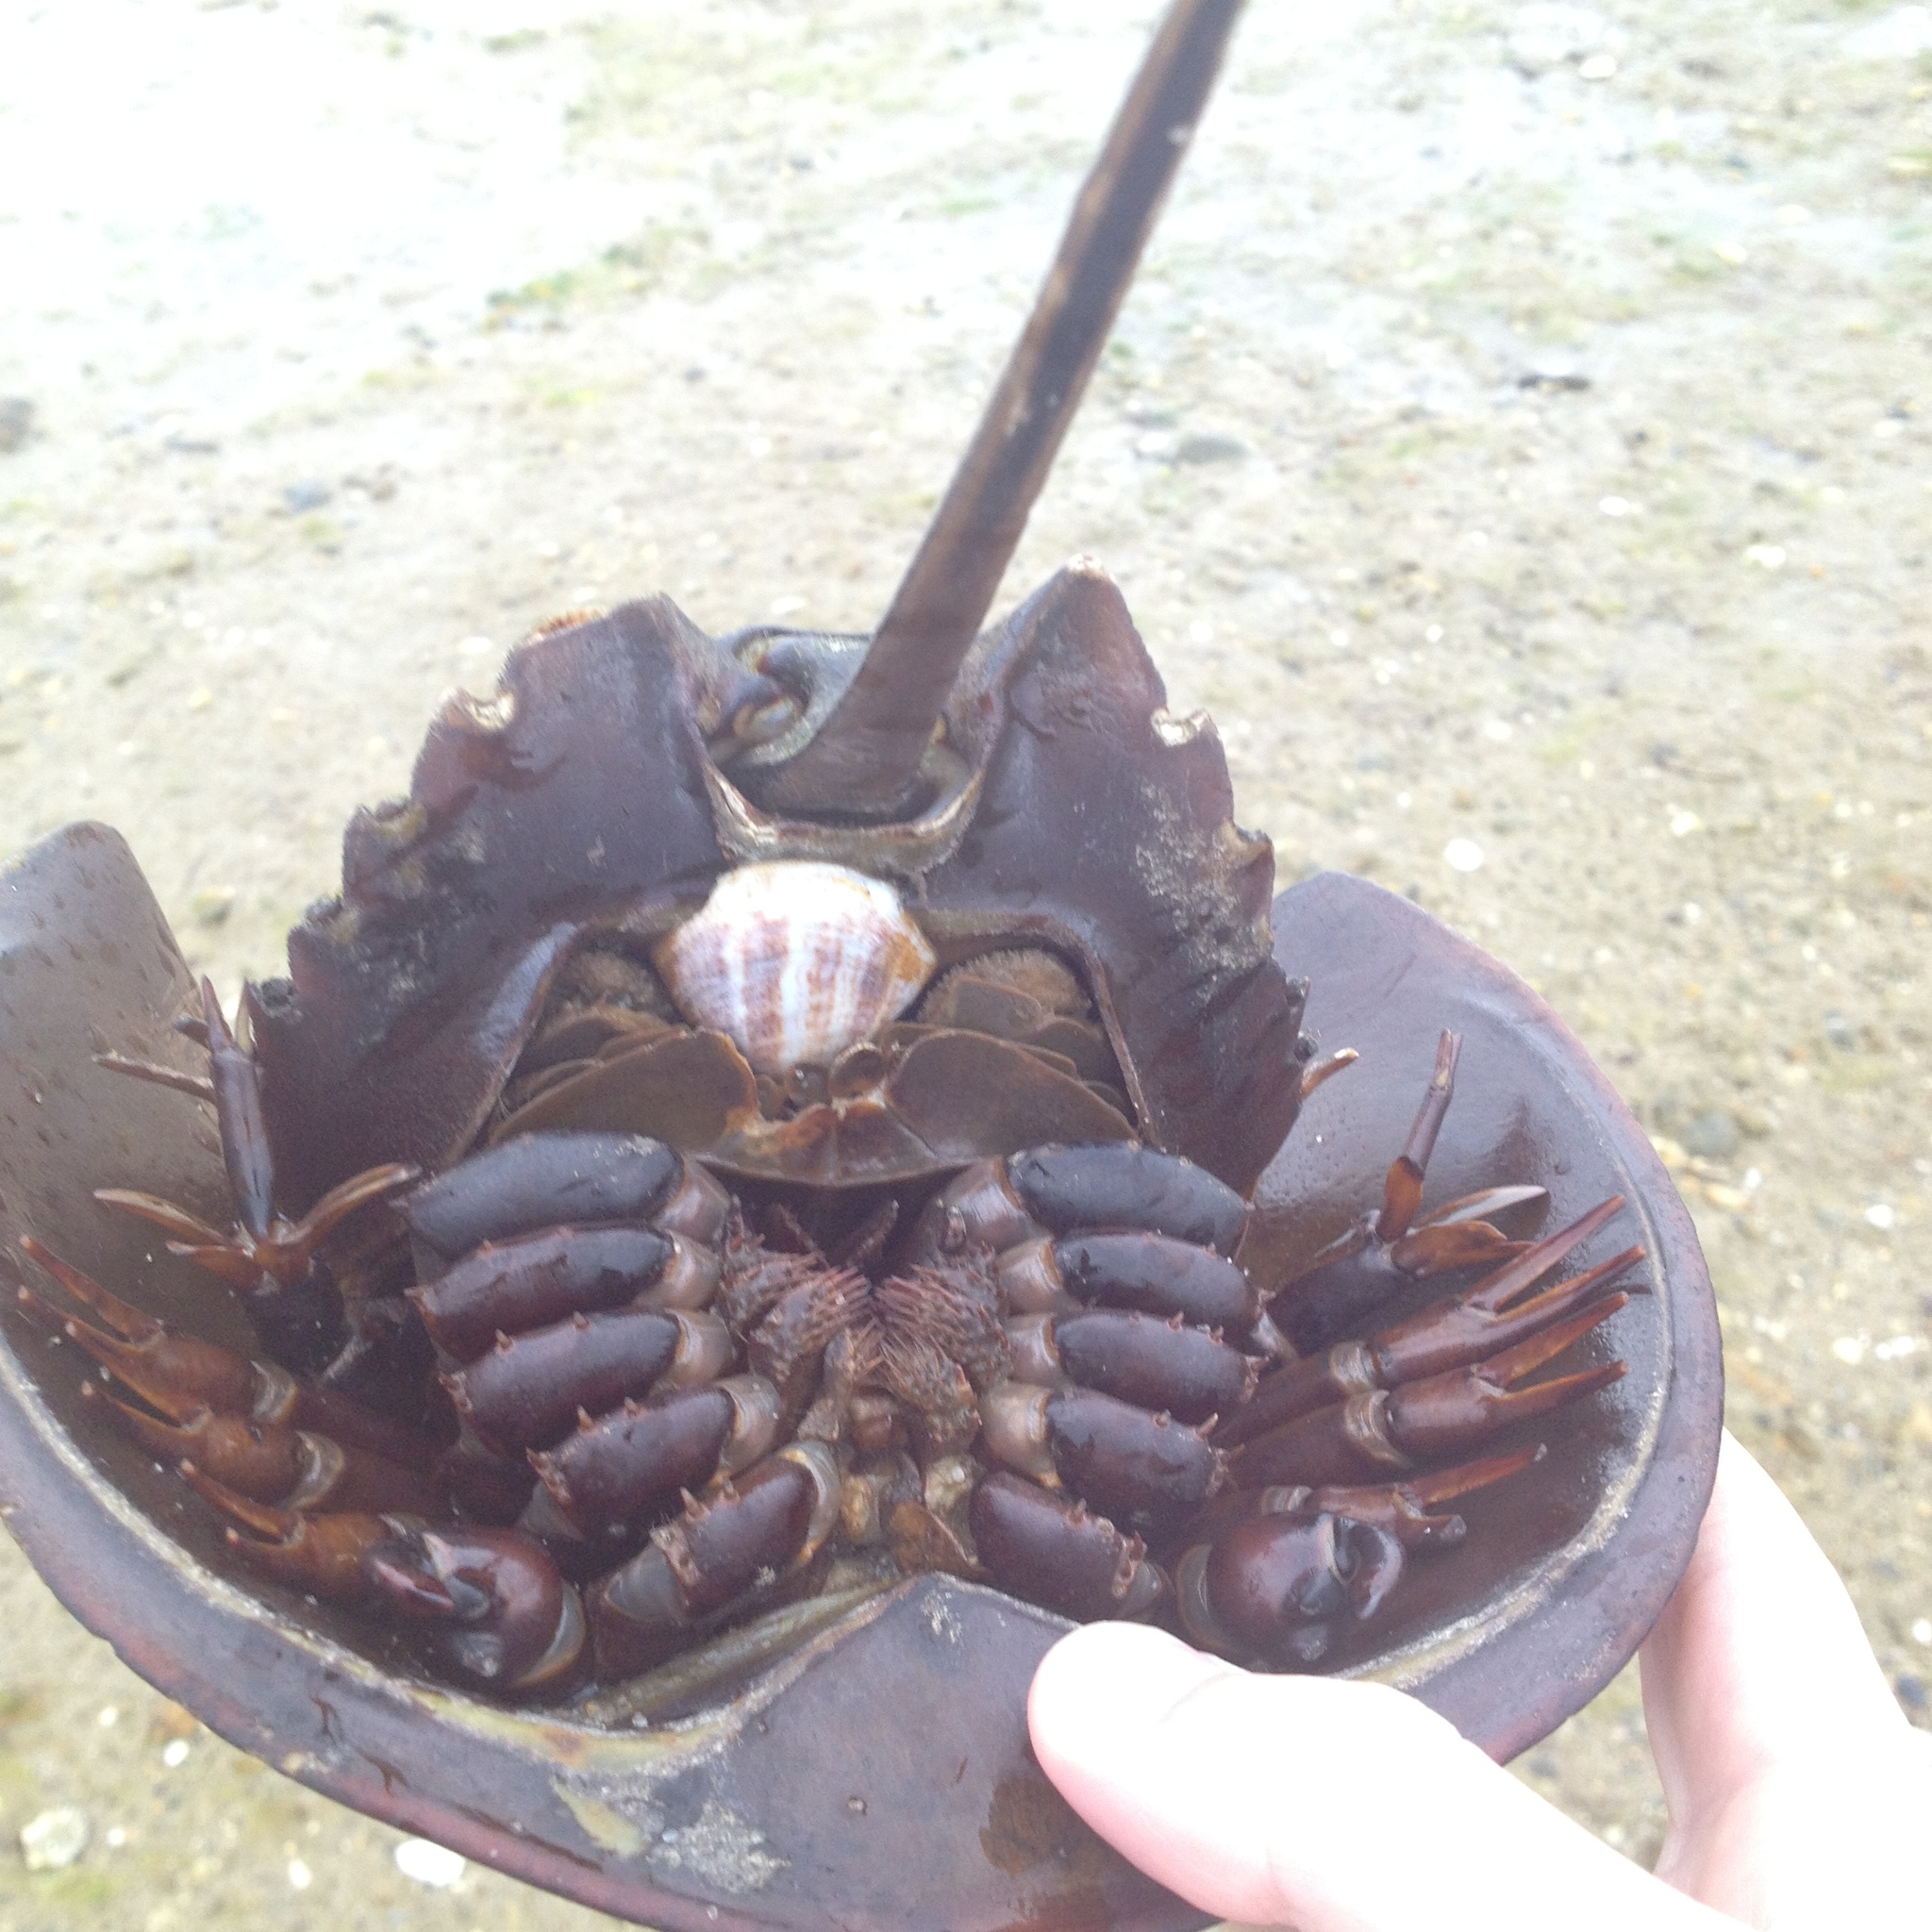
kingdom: Animalia
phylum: Arthropoda
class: Merostomata
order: Xiphosurida
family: Limulidae
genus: Limulus
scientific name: Limulus polyphemus
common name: Horseshoe crab
